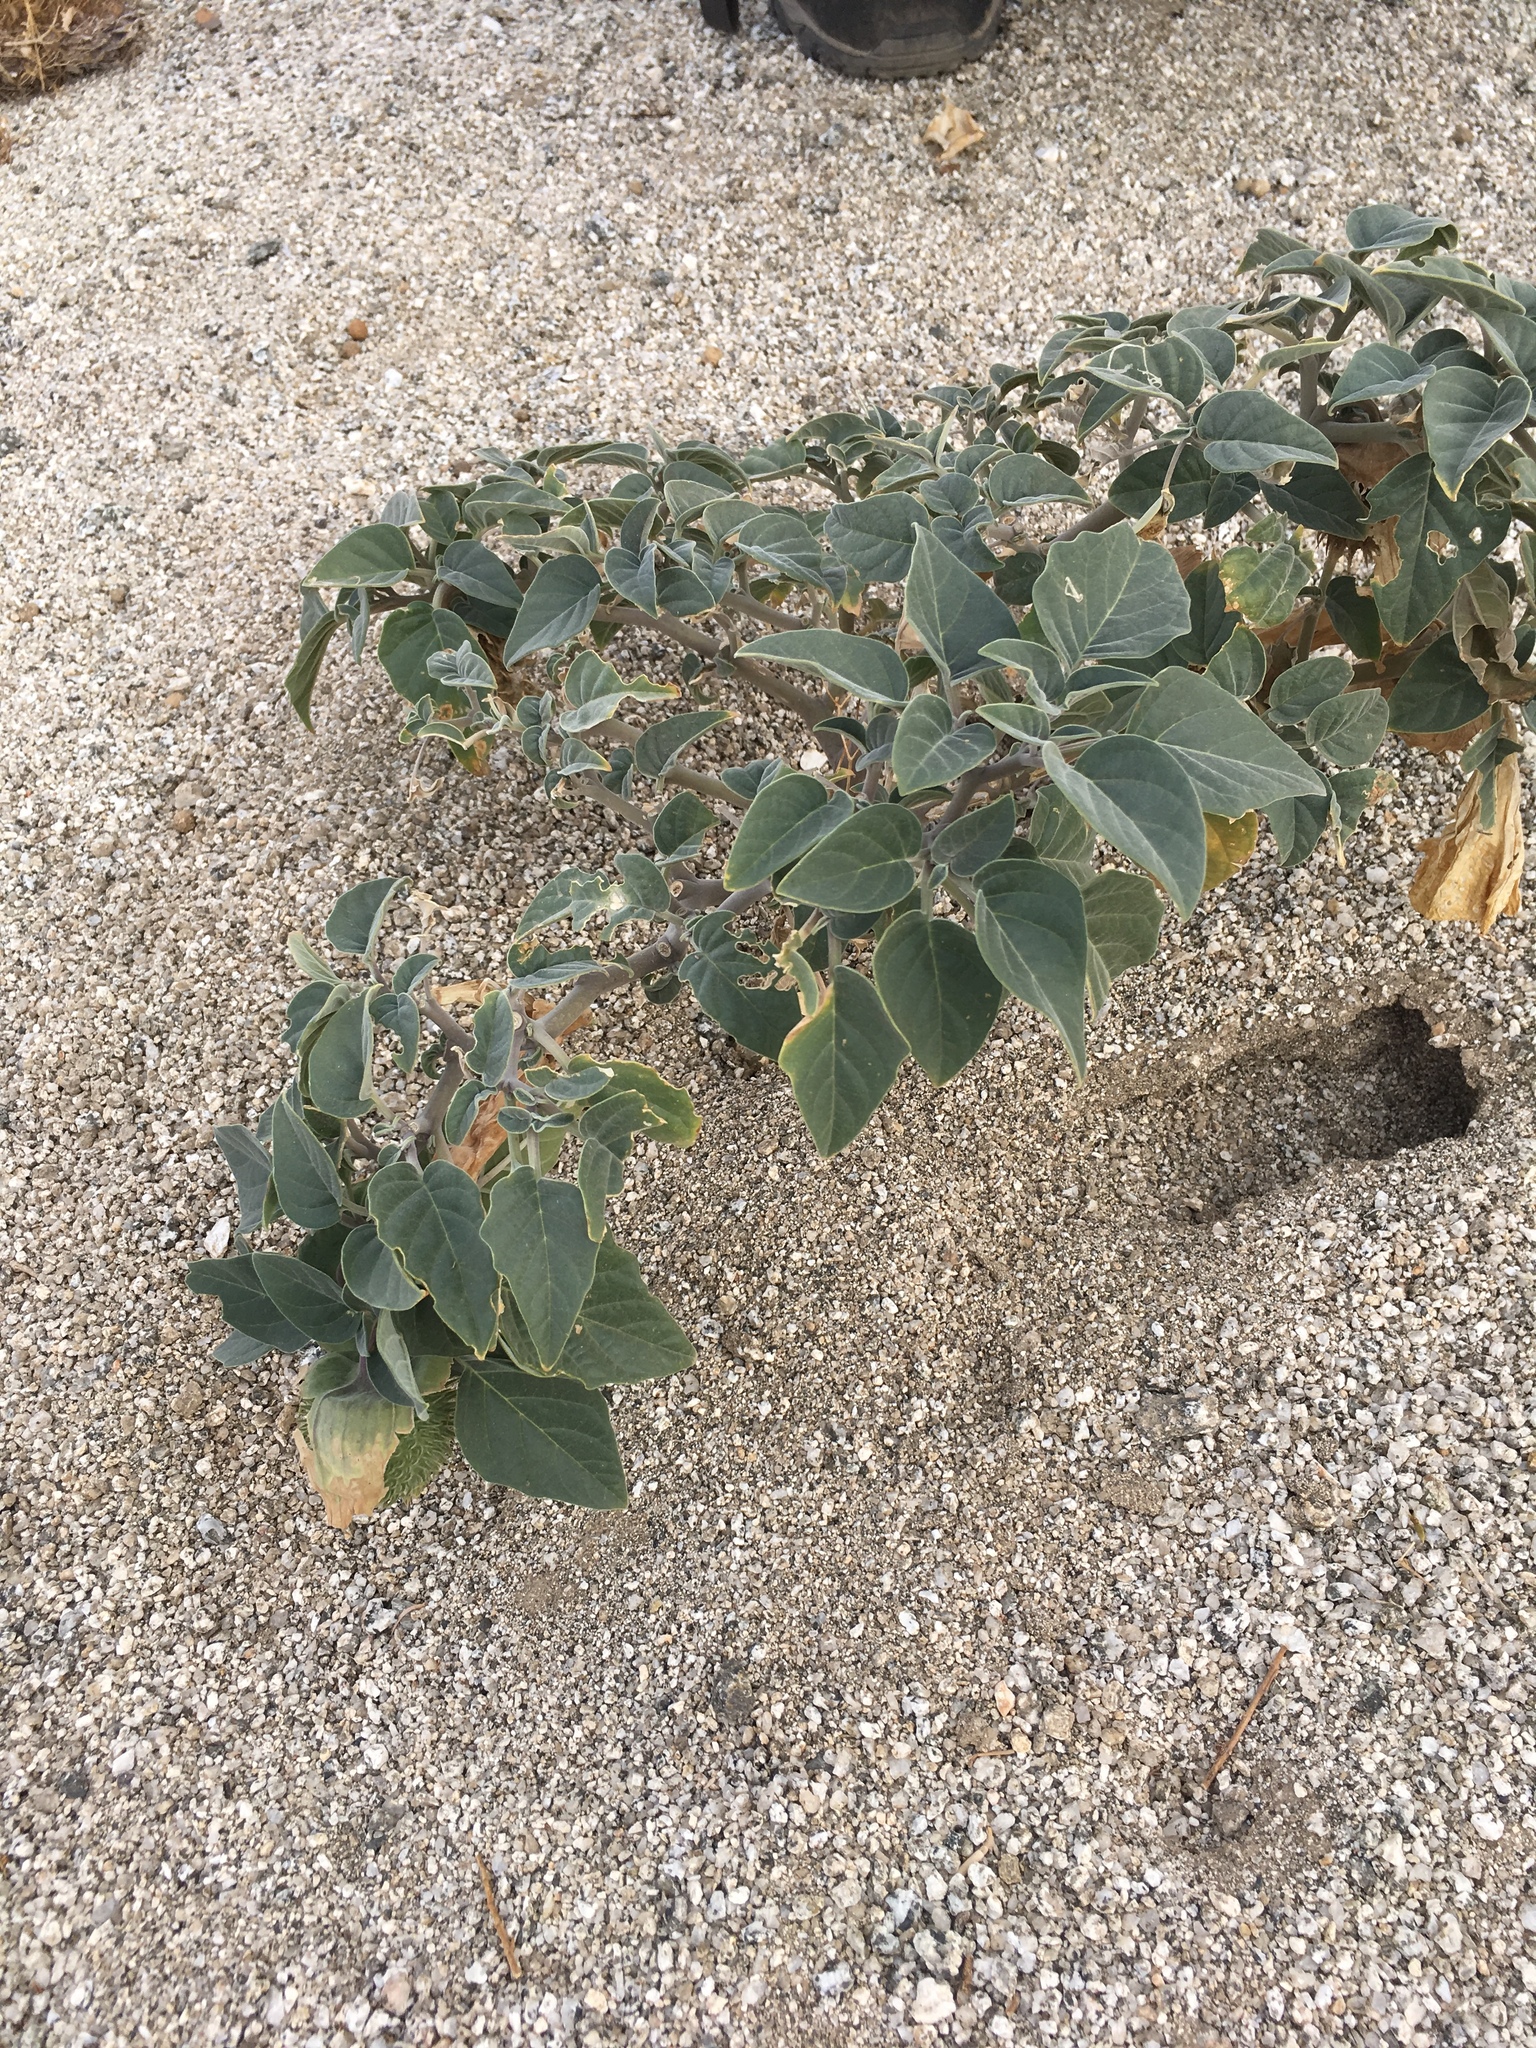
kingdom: Plantae
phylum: Tracheophyta
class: Magnoliopsida
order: Solanales
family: Solanaceae
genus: Datura
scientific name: Datura wrightii
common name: Sacred thorn-apple
